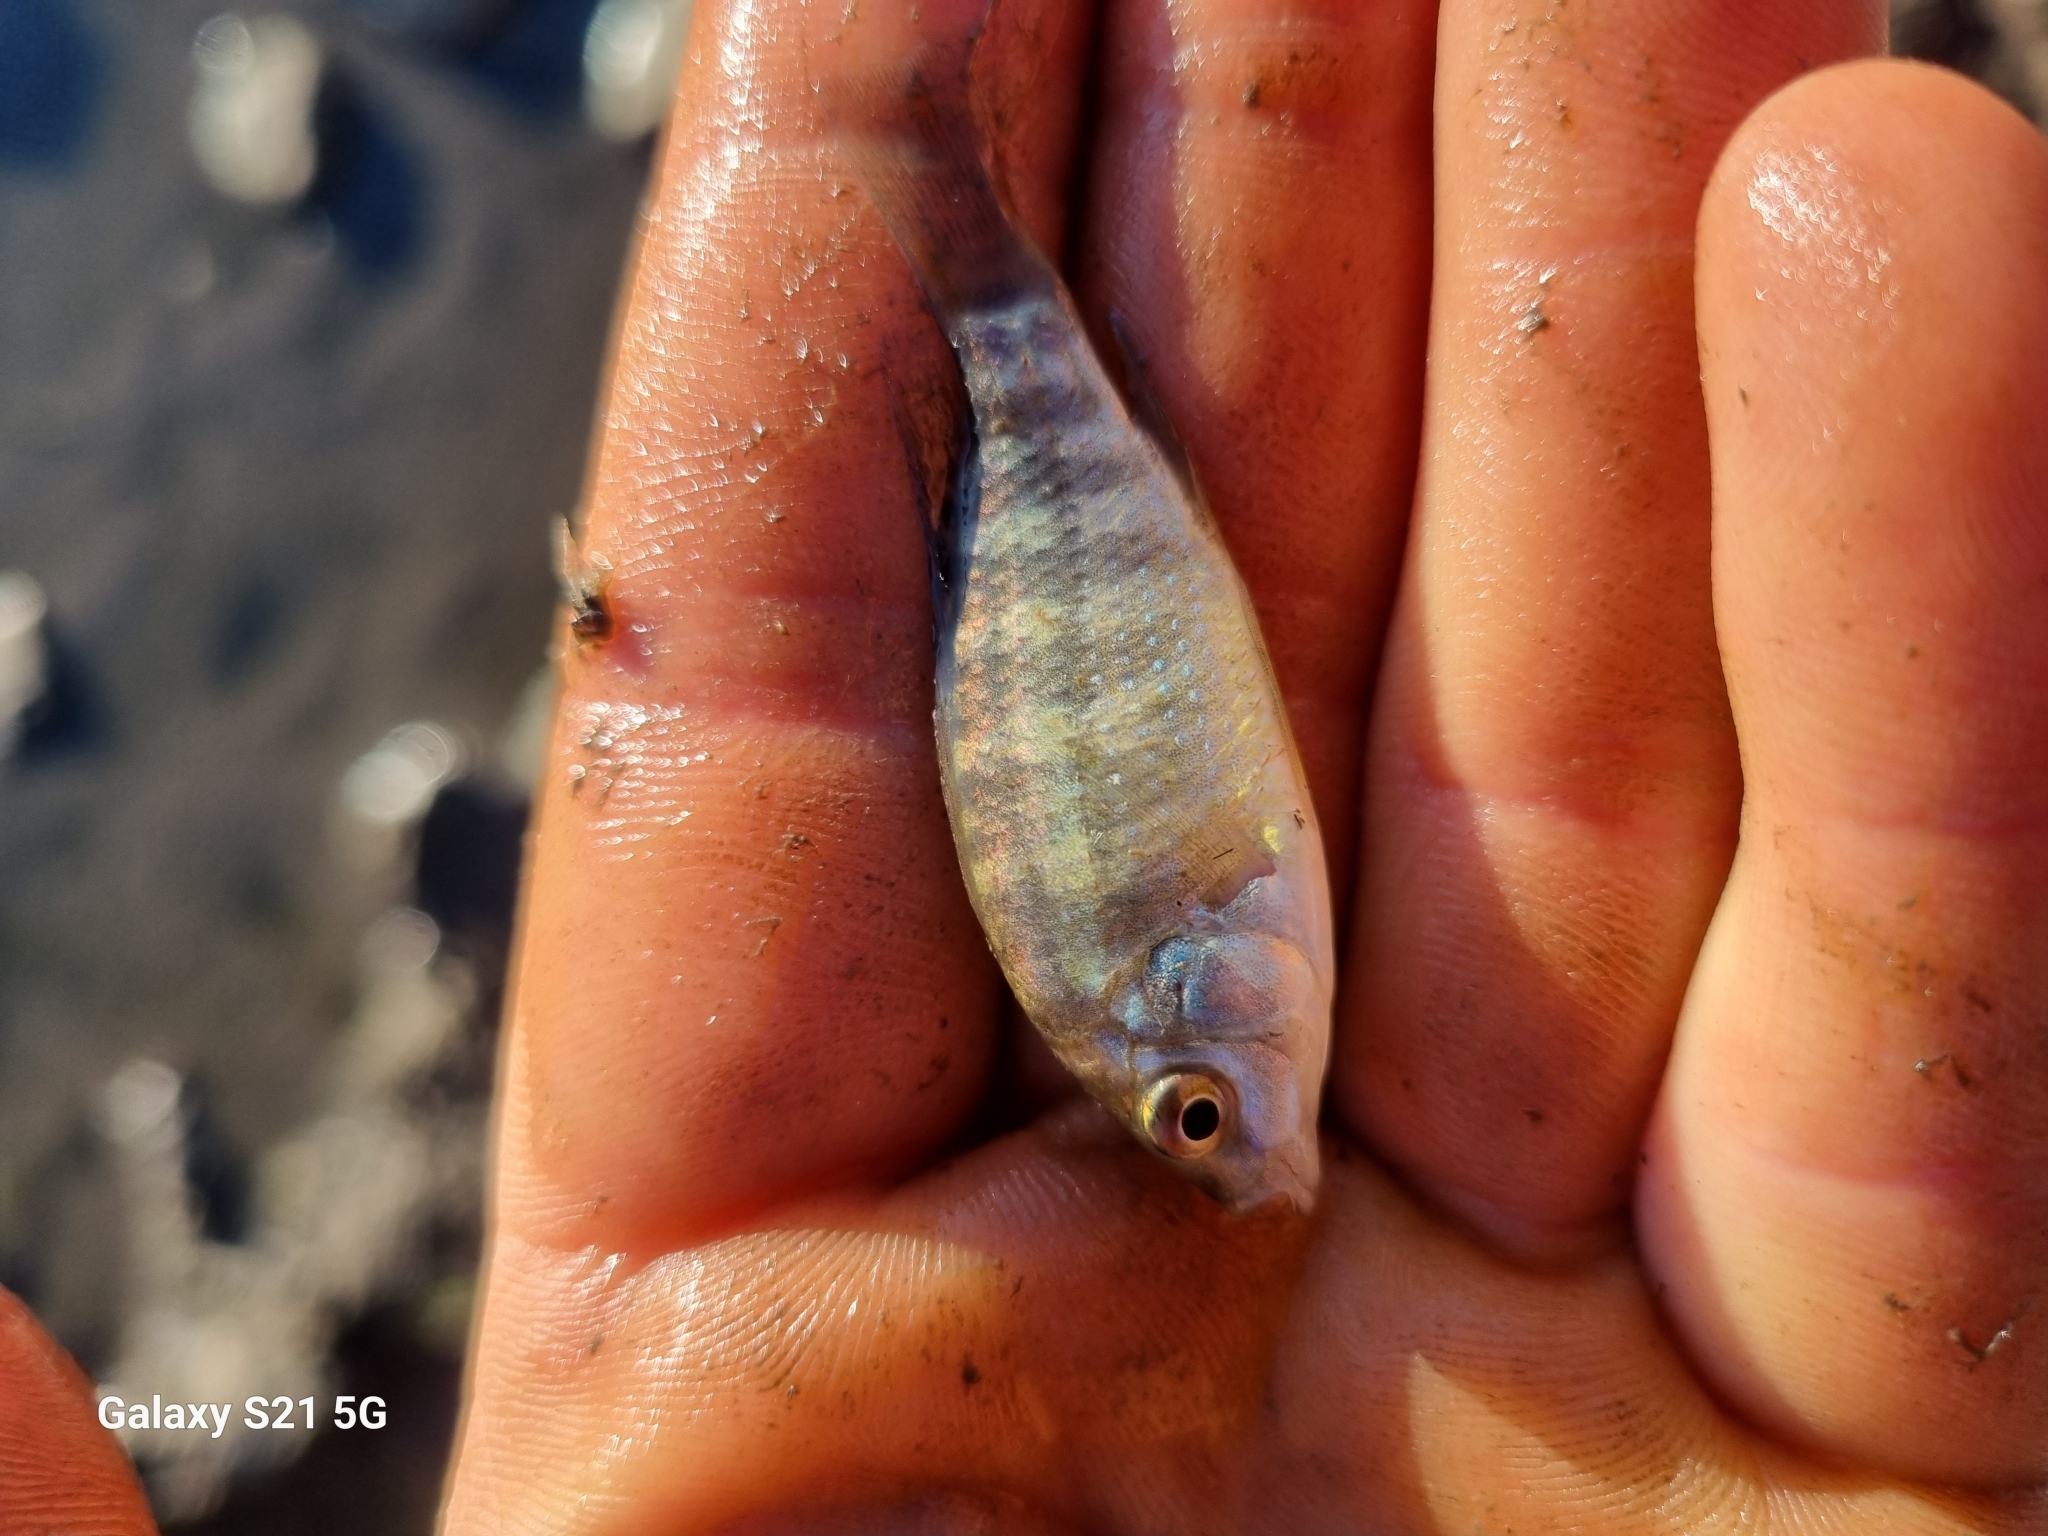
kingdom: Animalia
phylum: Chordata
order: Perciformes
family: Cichlidae
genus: Tilapia
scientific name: Tilapia sparrmanii
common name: Banded tilapia
